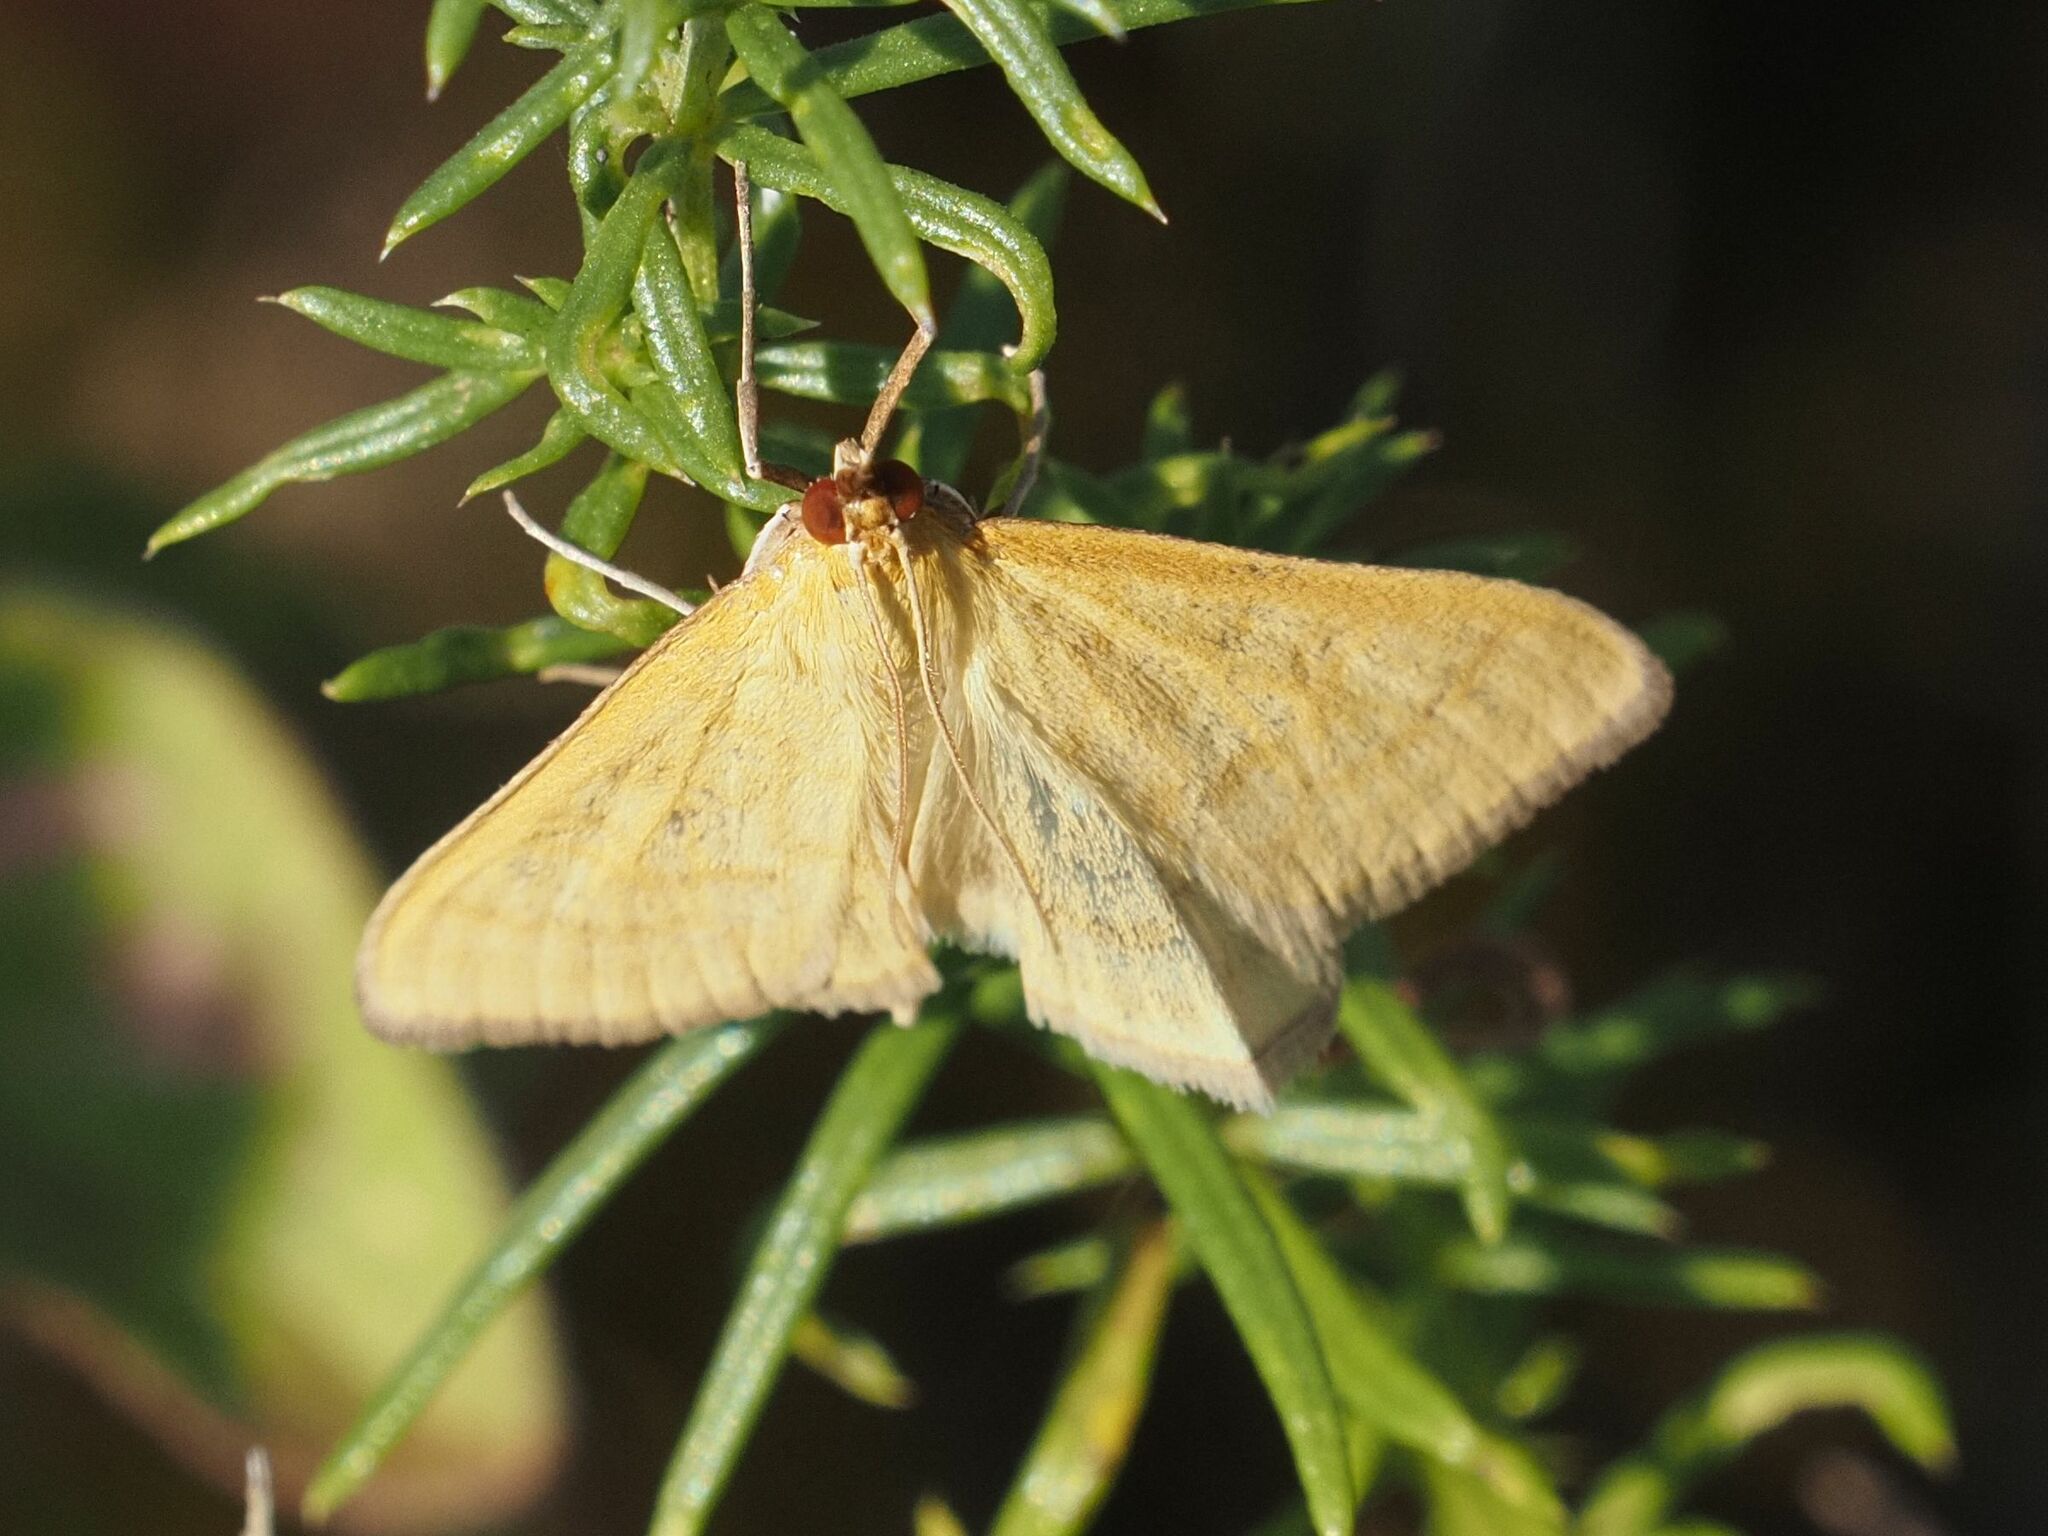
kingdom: Animalia
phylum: Arthropoda
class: Insecta
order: Lepidoptera
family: Crambidae
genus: Sitochroa
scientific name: Sitochroa verticalis
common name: Lesser pearl
